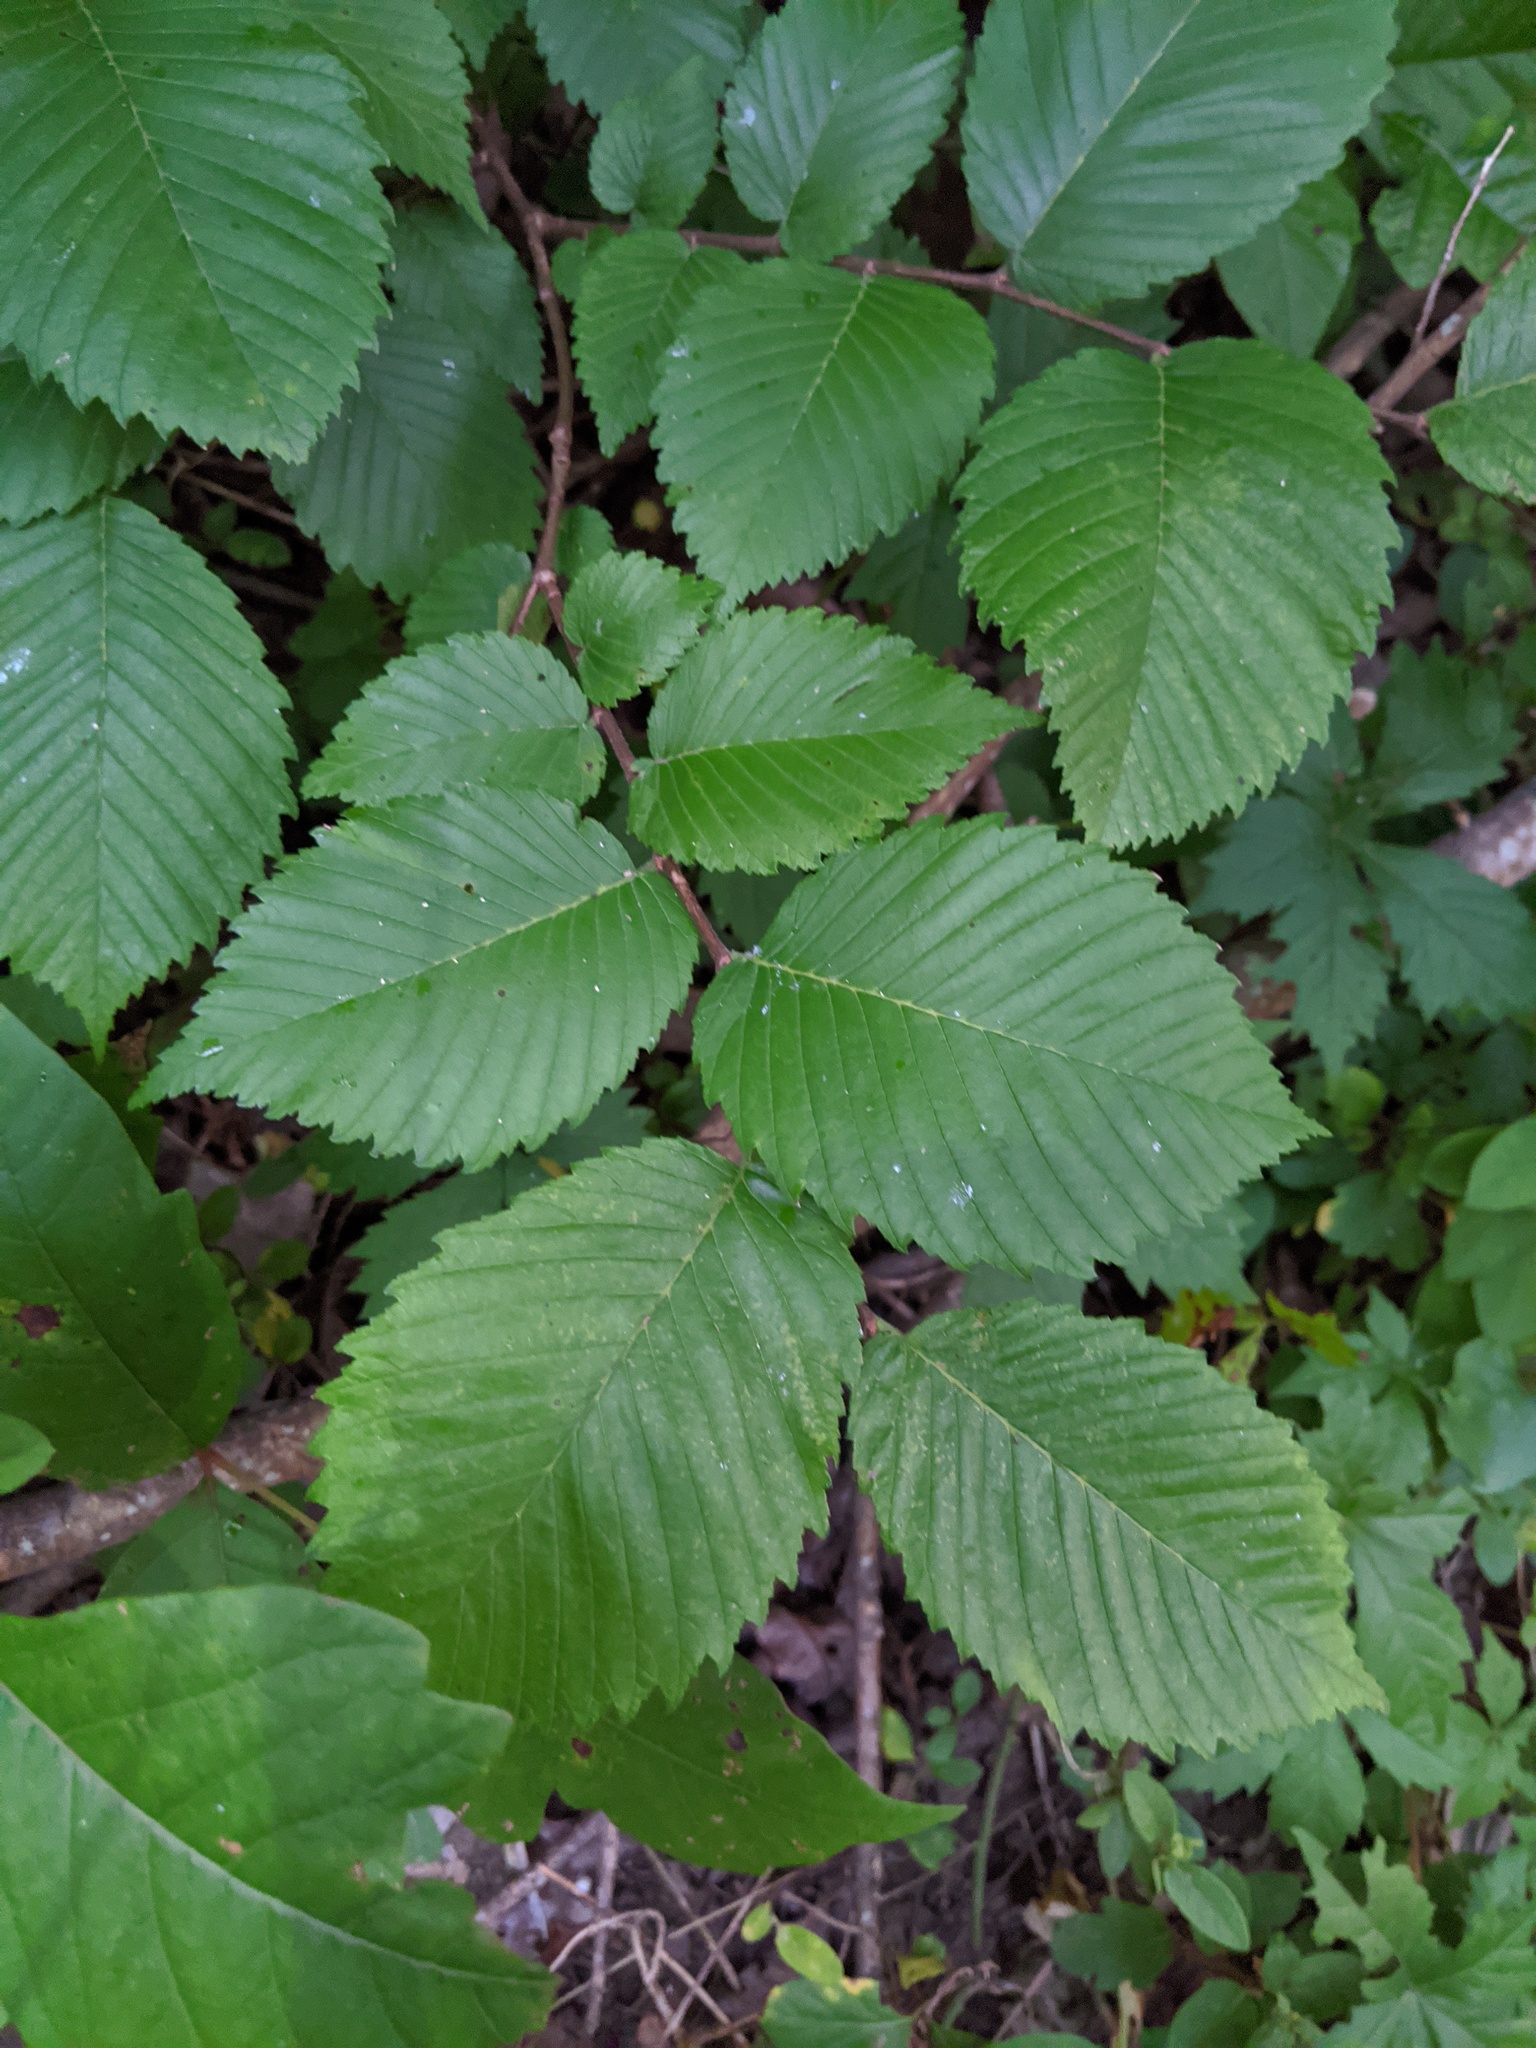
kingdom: Plantae
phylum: Tracheophyta
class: Magnoliopsida
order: Rosales
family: Ulmaceae
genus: Ulmus
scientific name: Ulmus americana
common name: American elm
